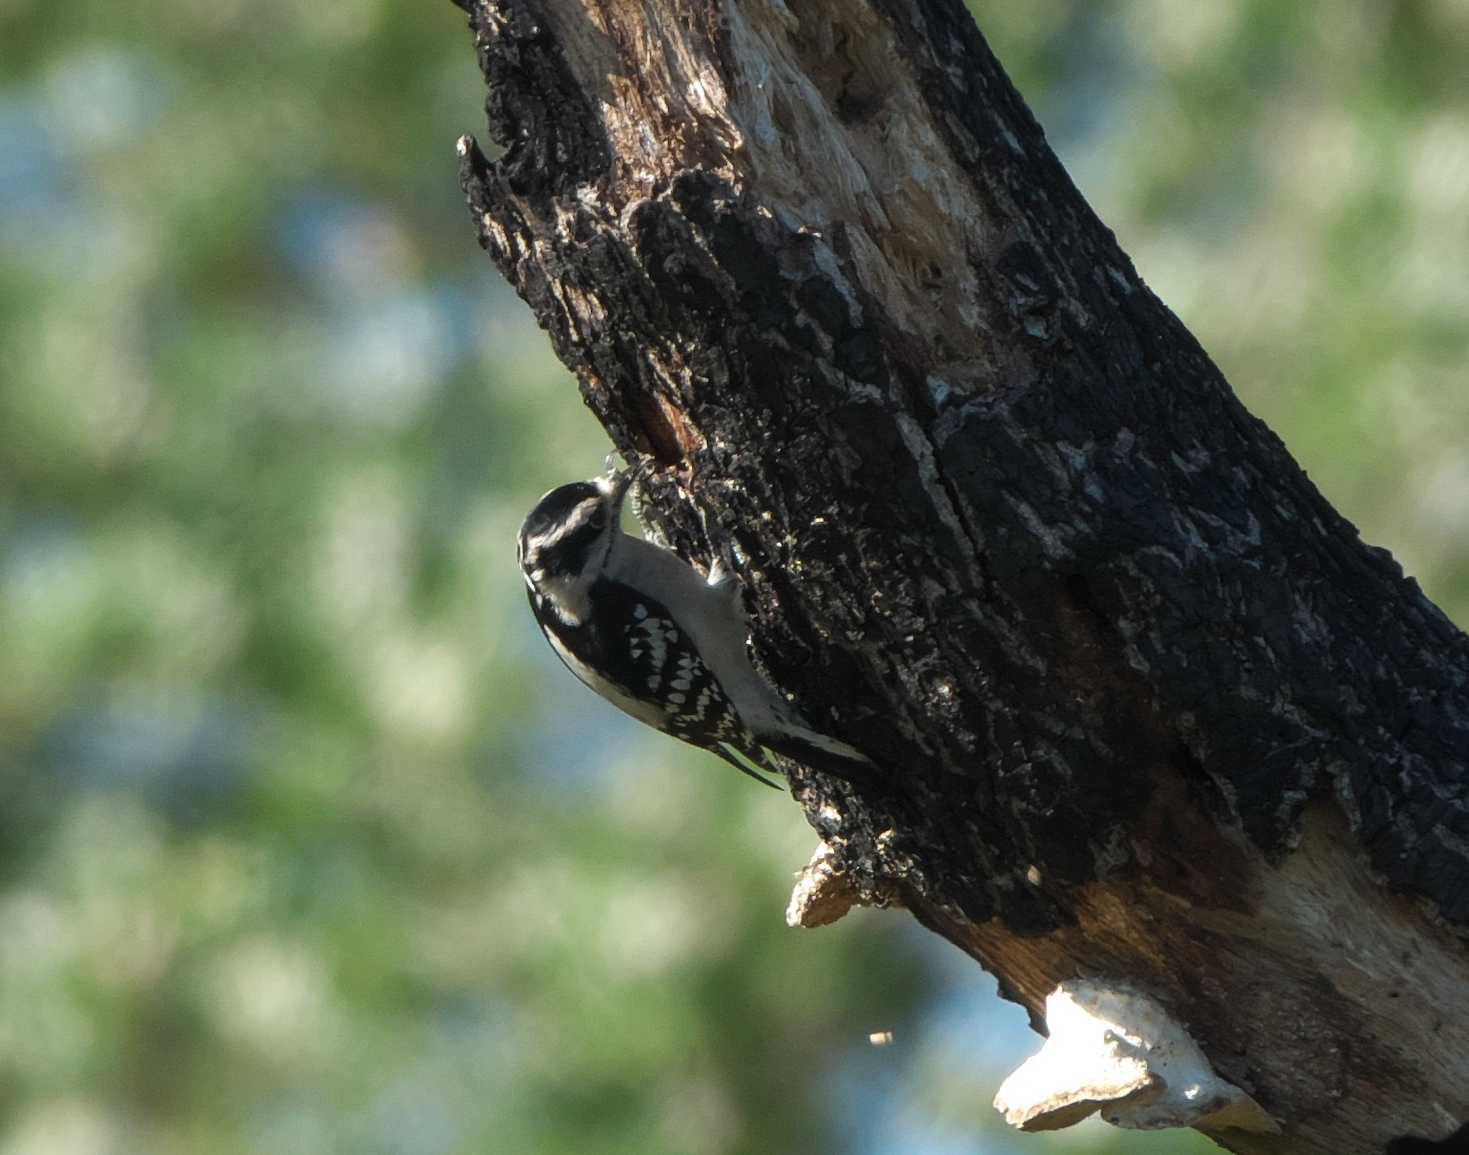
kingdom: Animalia
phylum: Chordata
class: Aves
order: Piciformes
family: Picidae
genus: Dryobates
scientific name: Dryobates pubescens
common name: Downy woodpecker
